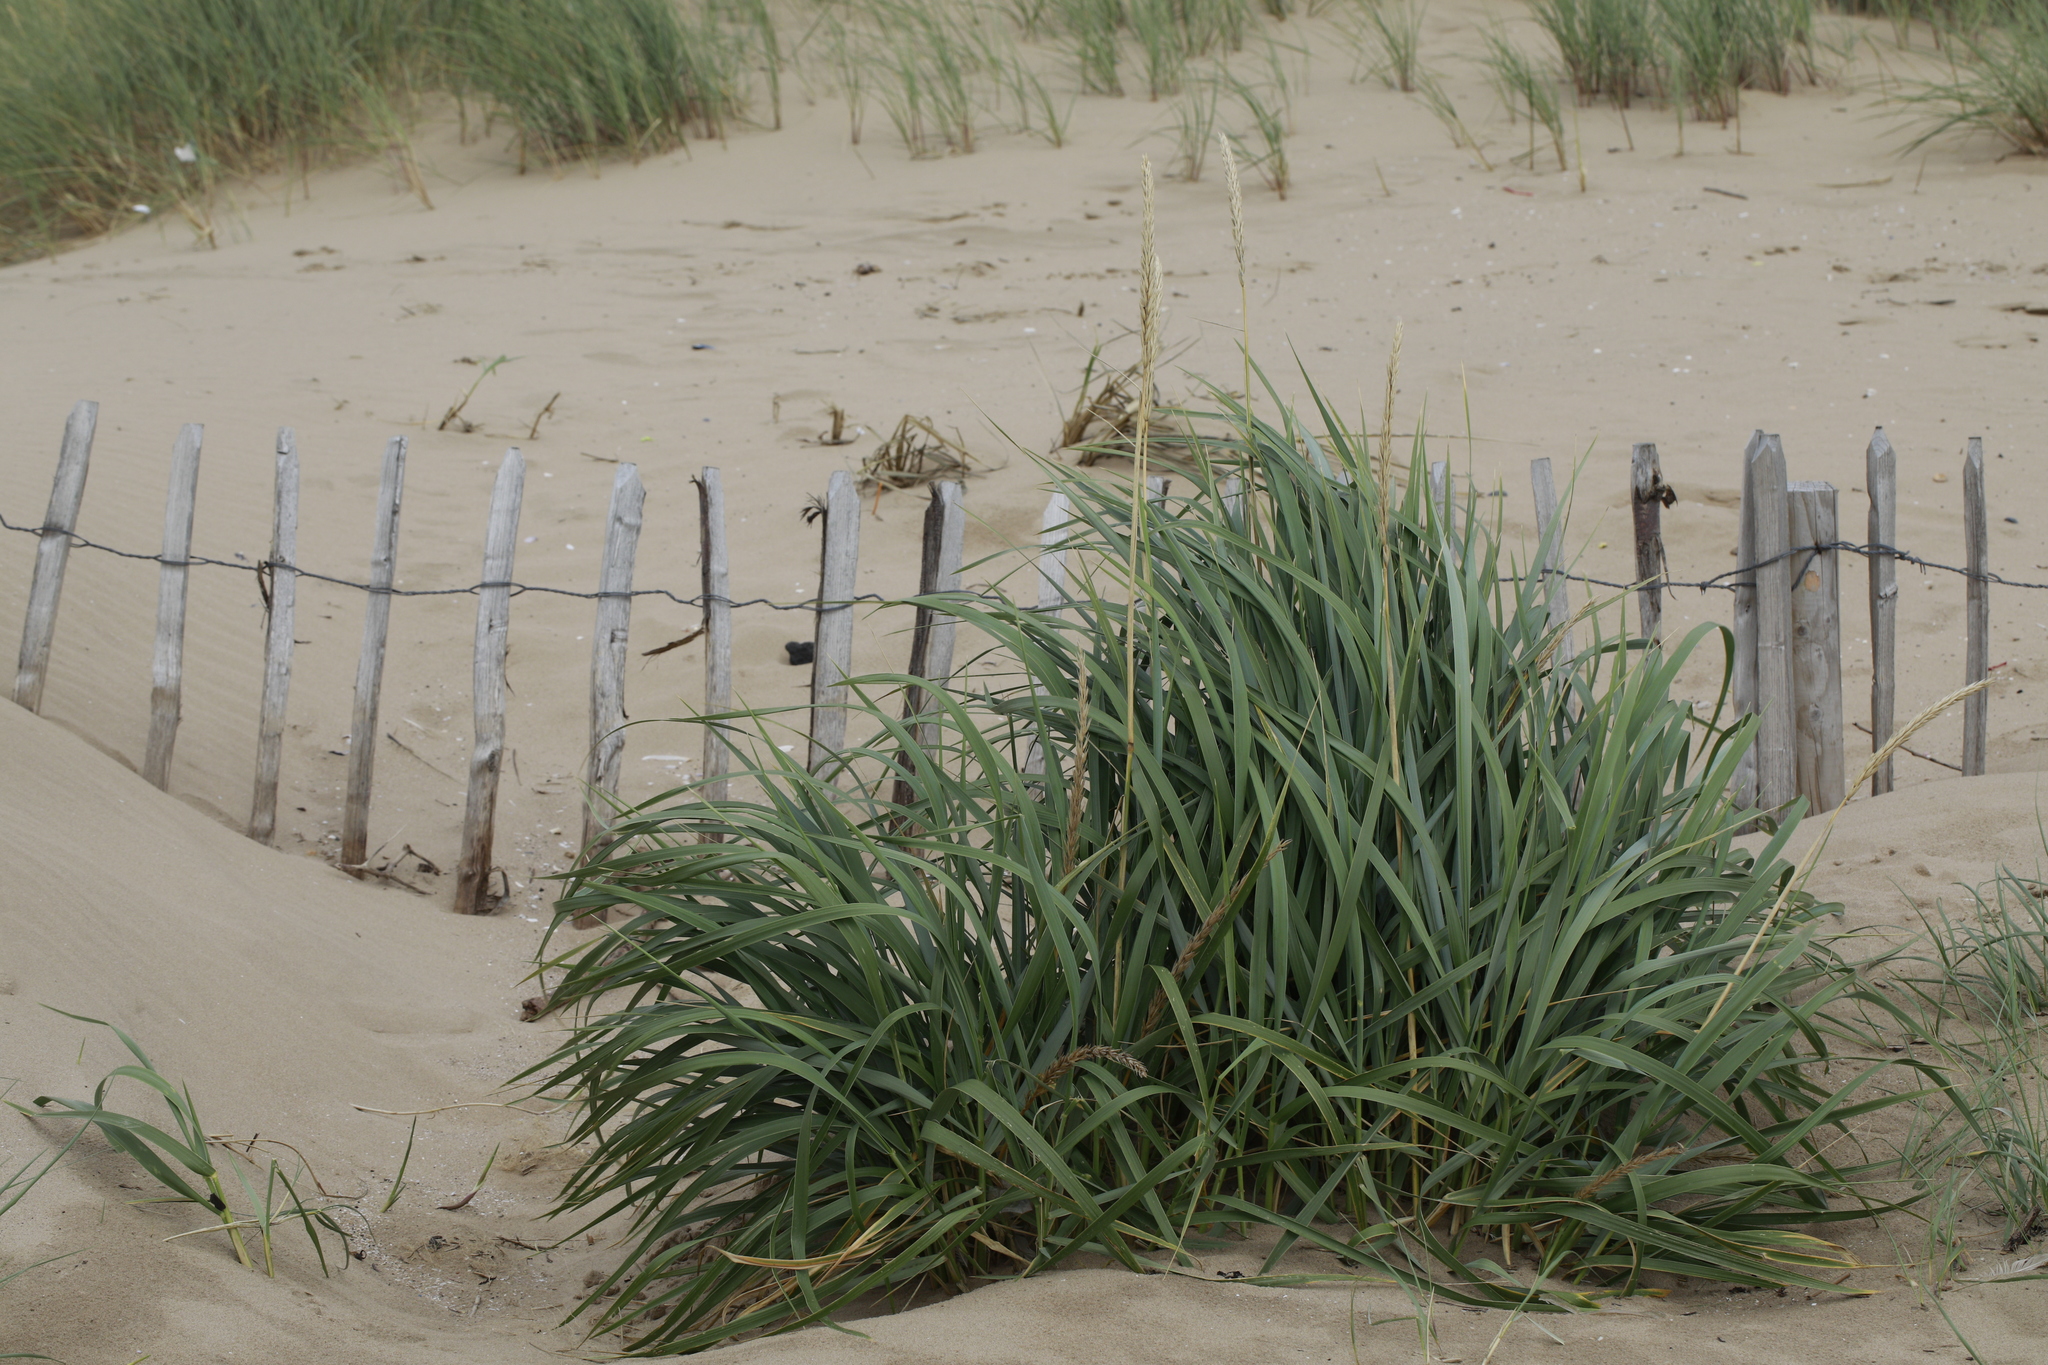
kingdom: Plantae
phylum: Tracheophyta
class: Liliopsida
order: Poales
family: Poaceae
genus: Leymus
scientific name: Leymus arenarius
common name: Lyme-grass
